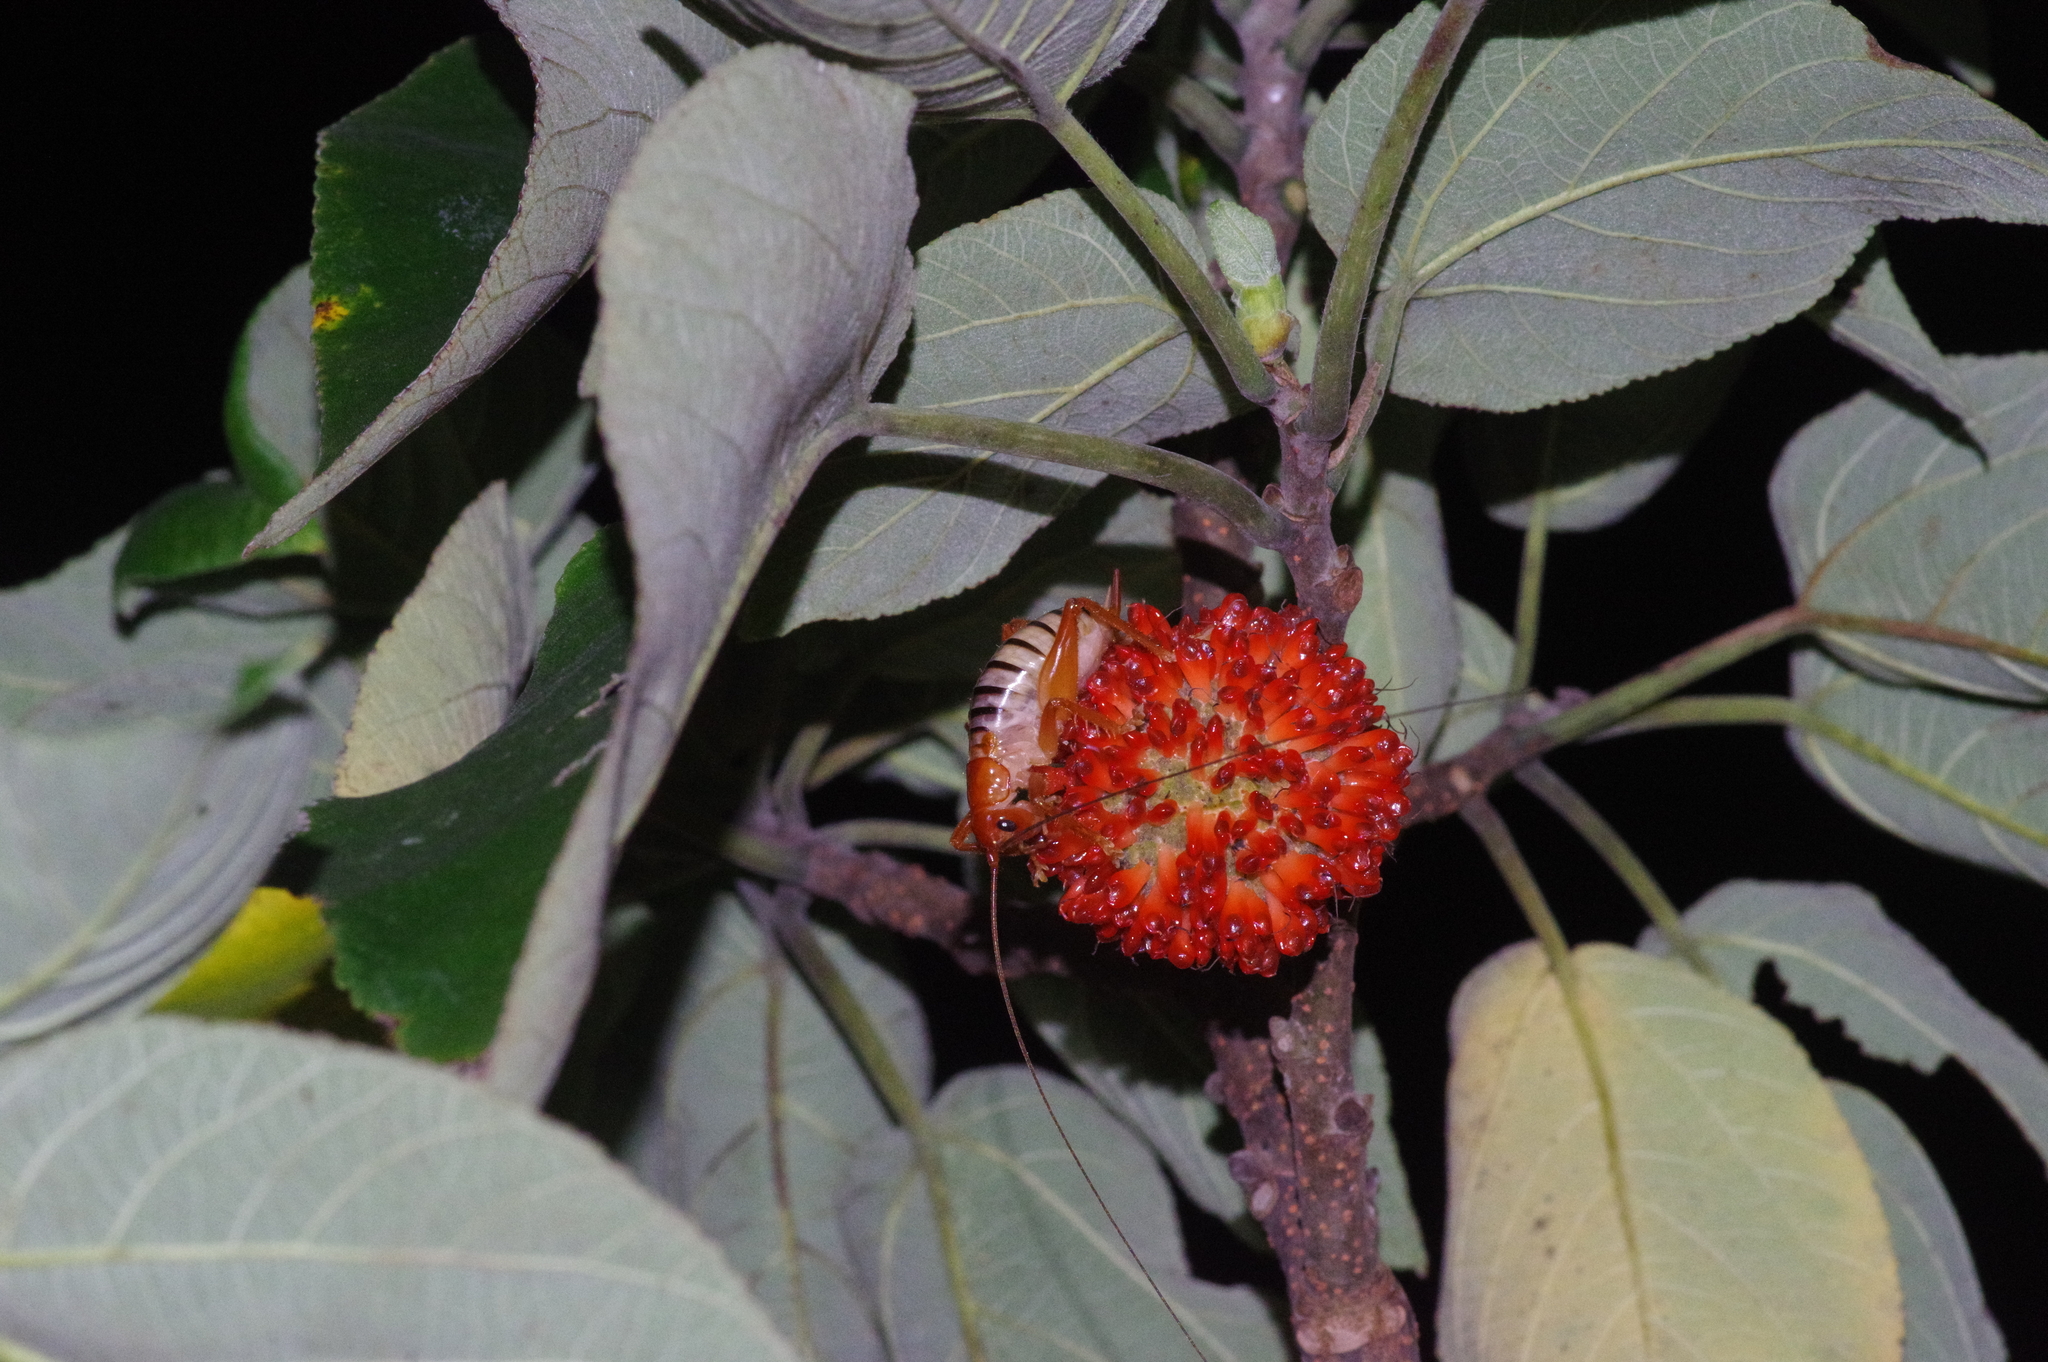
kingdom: Animalia
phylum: Arthropoda
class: Insecta
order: Orthoptera
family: Gryllacrididae
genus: Metriogryllacris
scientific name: Metriogryllacris magna
